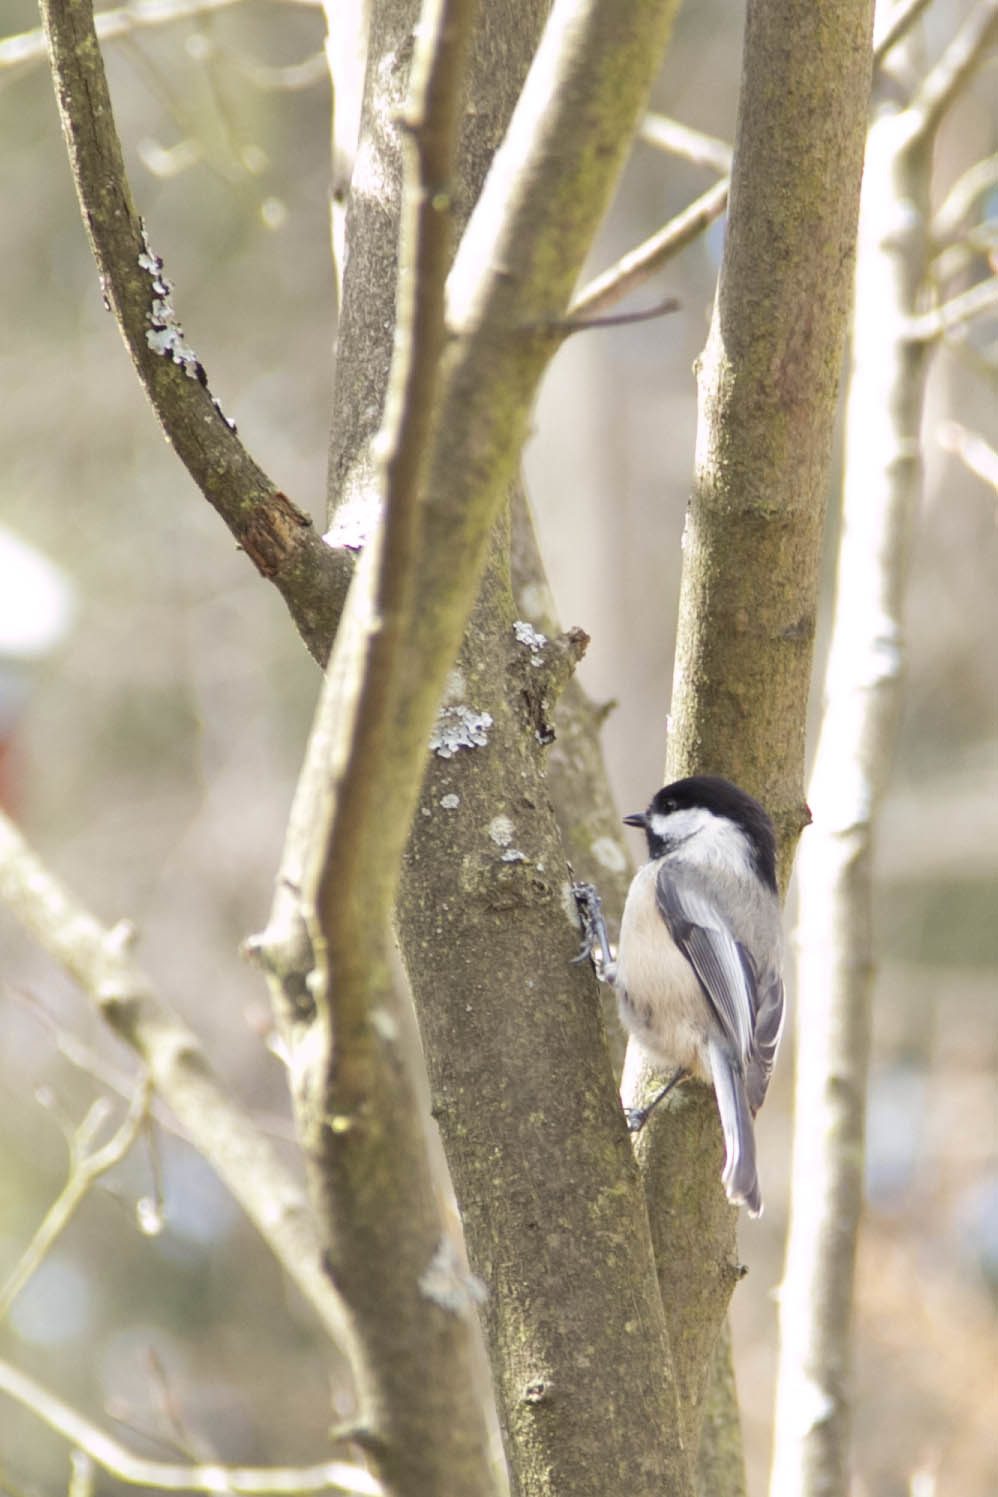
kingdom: Animalia
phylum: Chordata
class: Aves
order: Passeriformes
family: Paridae
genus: Poecile
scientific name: Poecile atricapillus
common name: Black-capped chickadee
